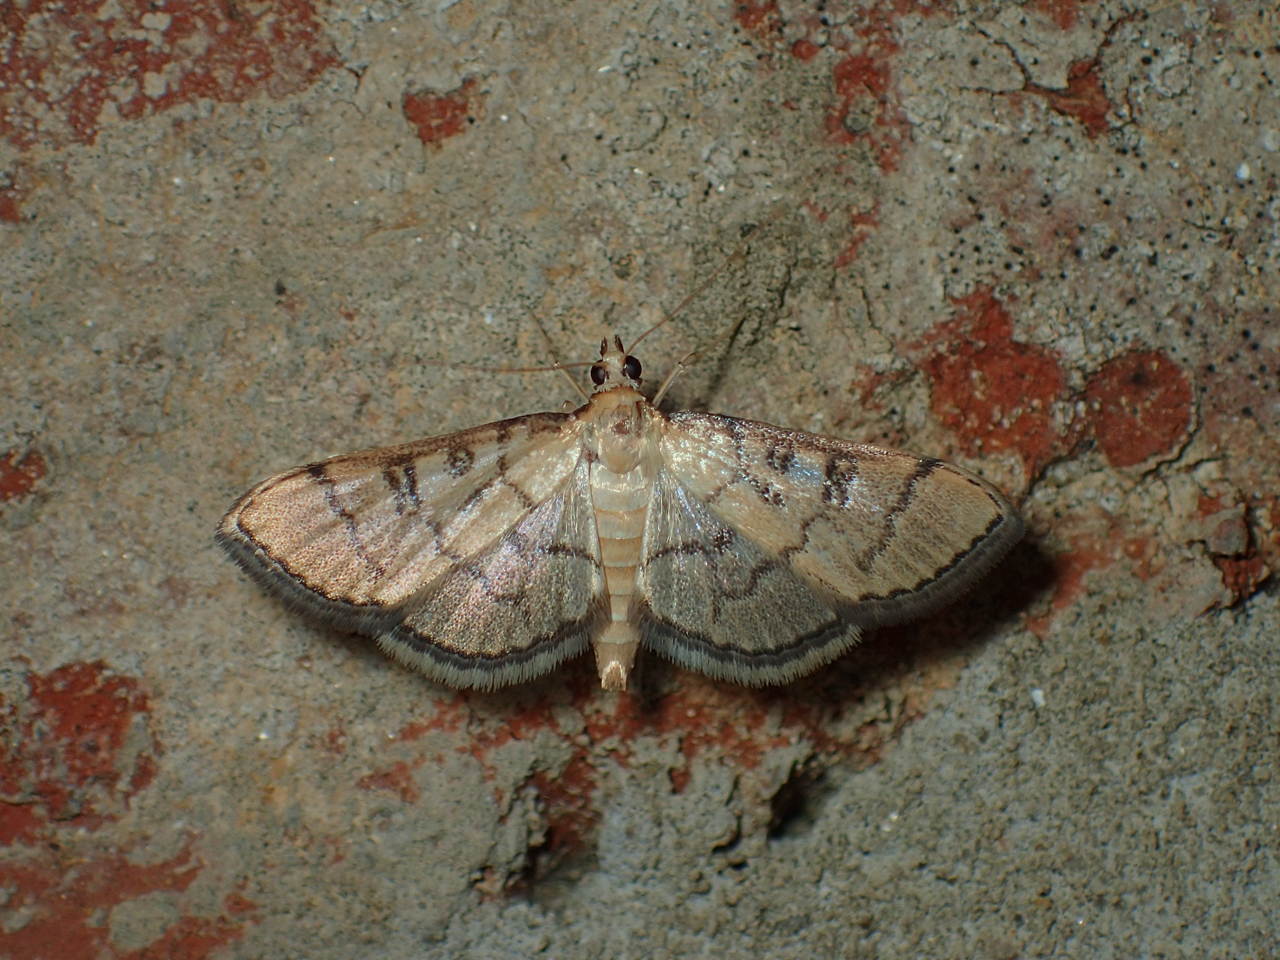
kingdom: Animalia
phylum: Arthropoda
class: Insecta
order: Lepidoptera
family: Crambidae
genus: Lamprosema
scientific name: Lamprosema Blepharomastix ranalis
